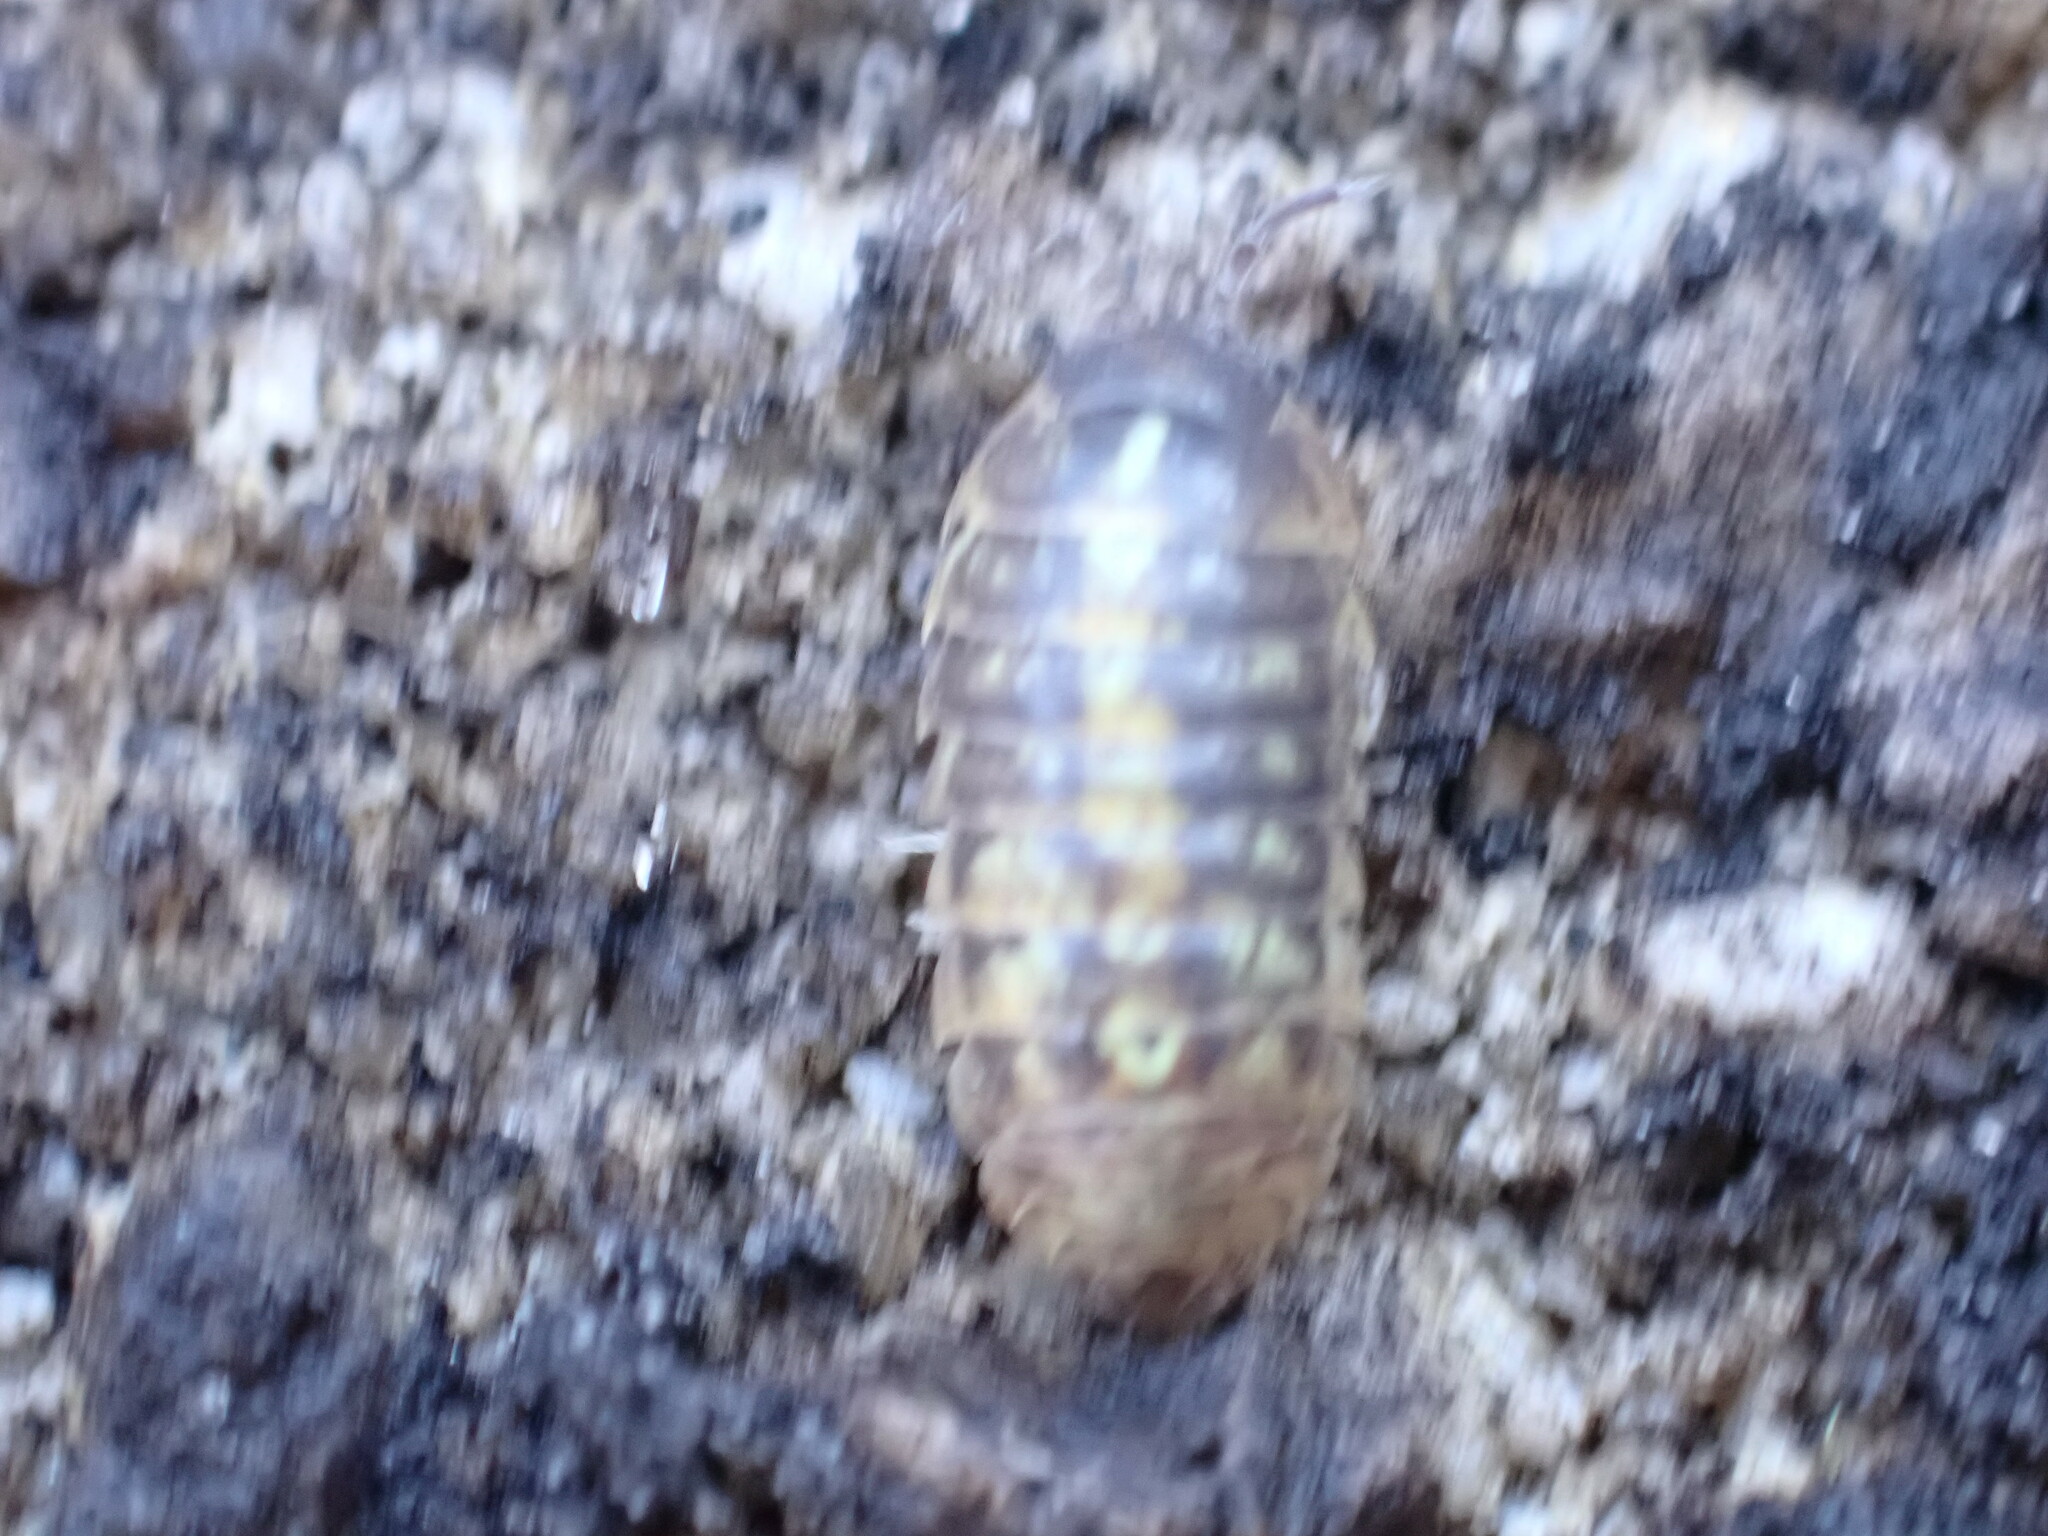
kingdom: Animalia
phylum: Arthropoda
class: Malacostraca
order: Isopoda
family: Armadillidiidae
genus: Armadillidium
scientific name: Armadillidium vulgare
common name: Common pill woodlouse
